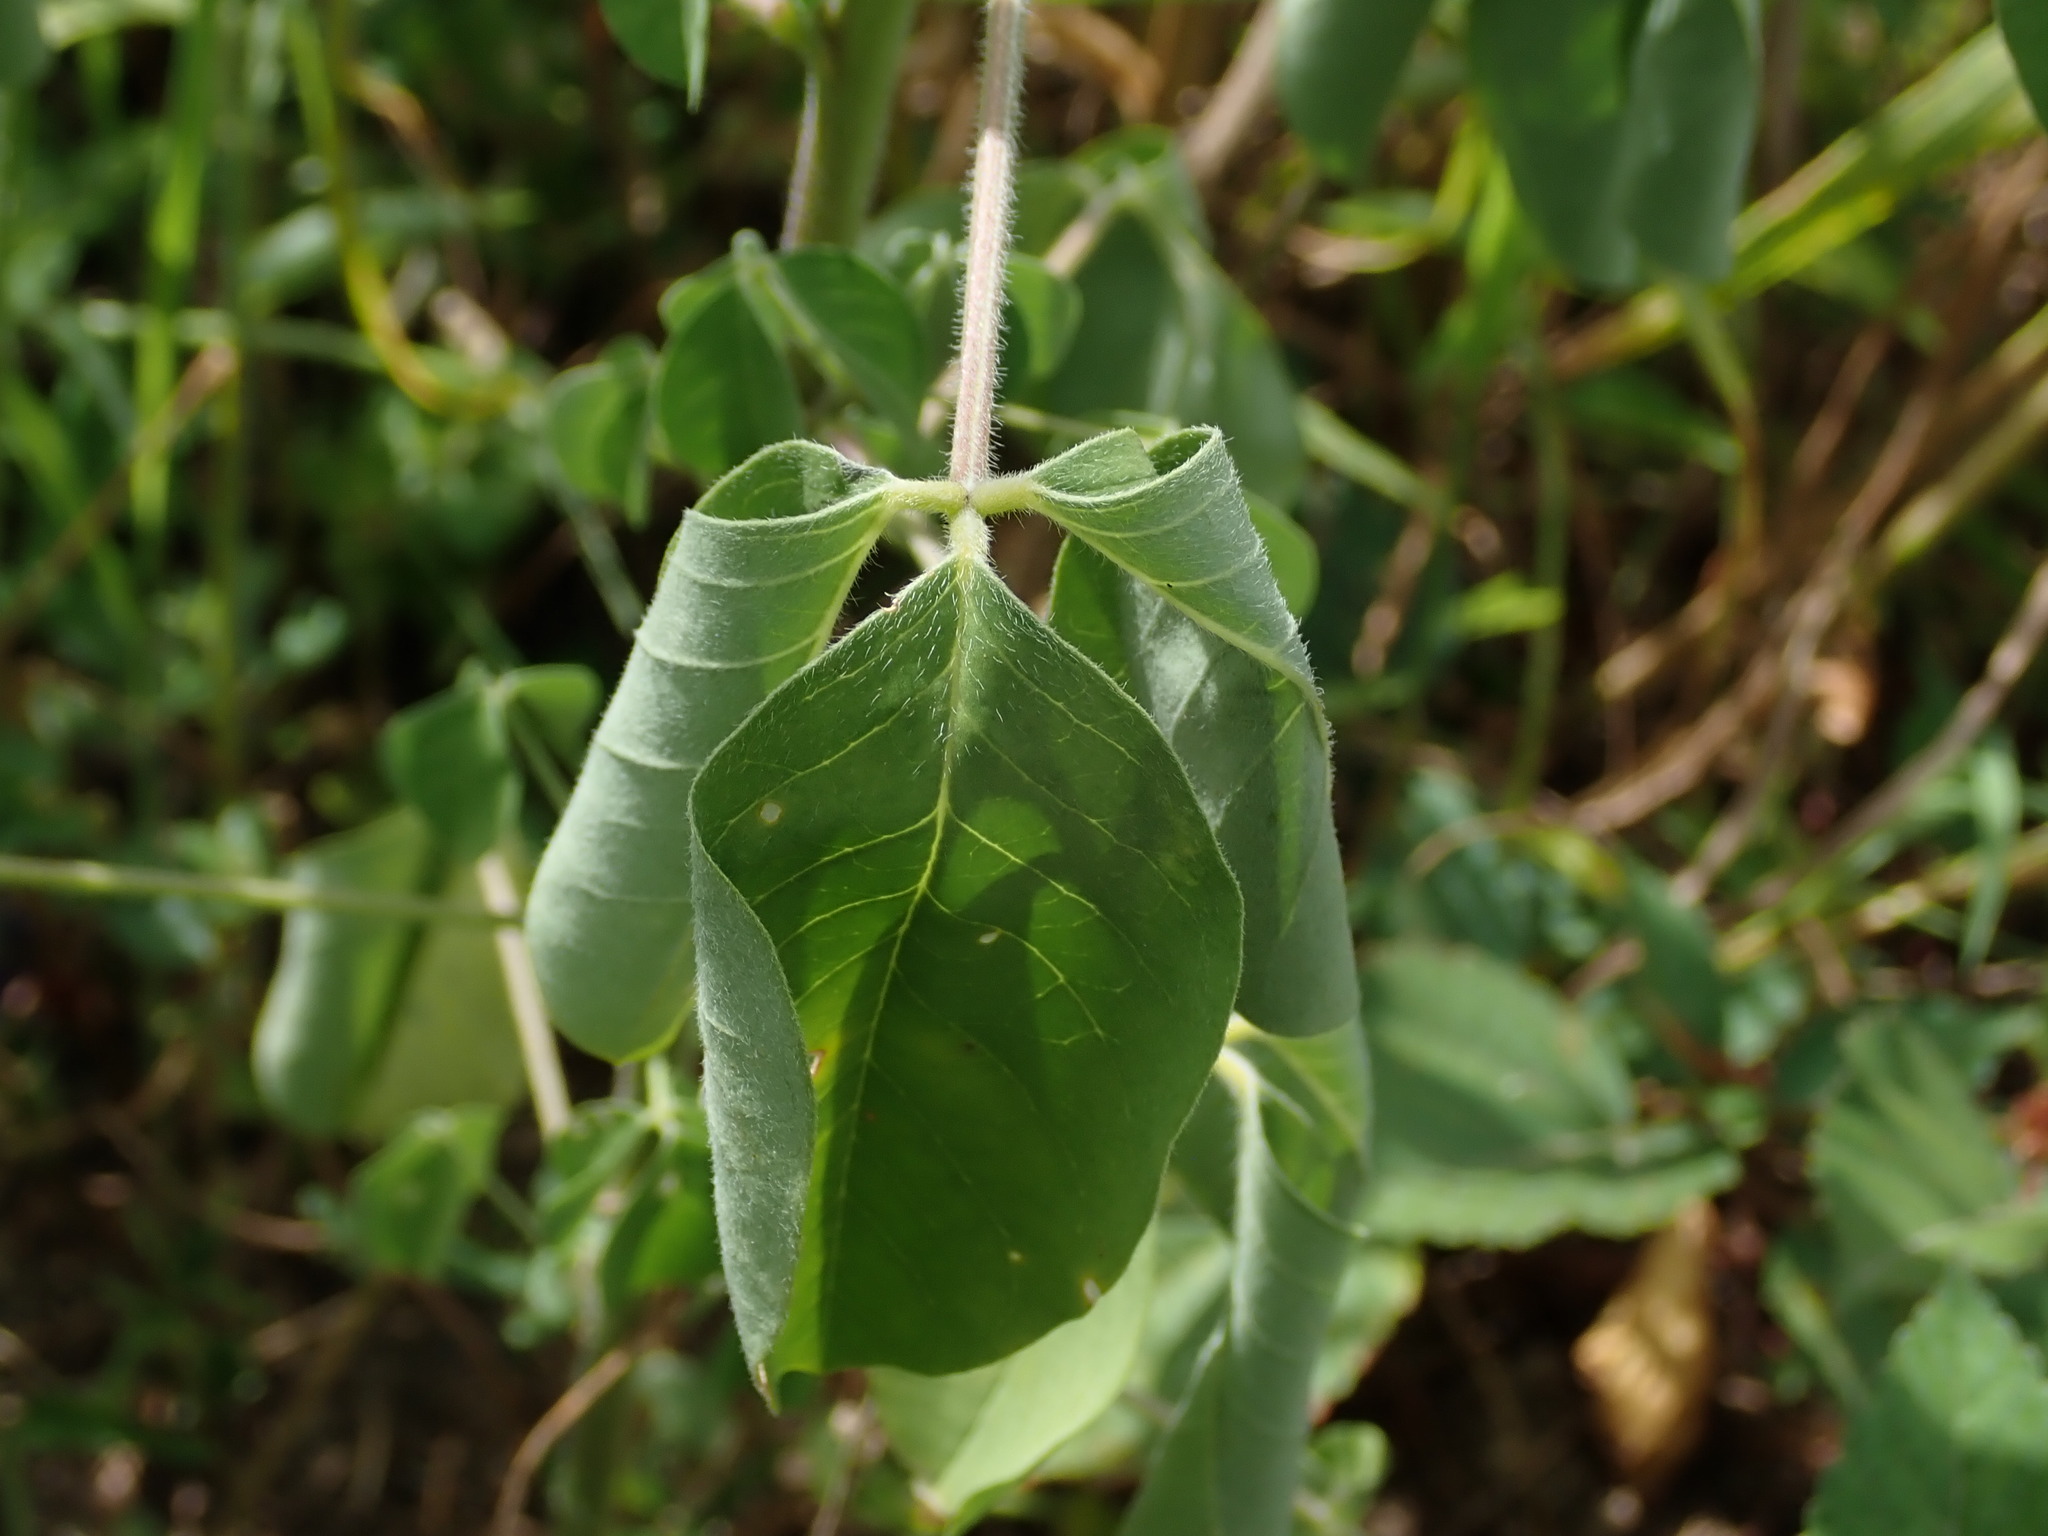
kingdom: Plantae
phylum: Tracheophyta
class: Magnoliopsida
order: Fabales
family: Fabaceae
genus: Crotalaria
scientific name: Crotalaria incana
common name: Shakeshake
